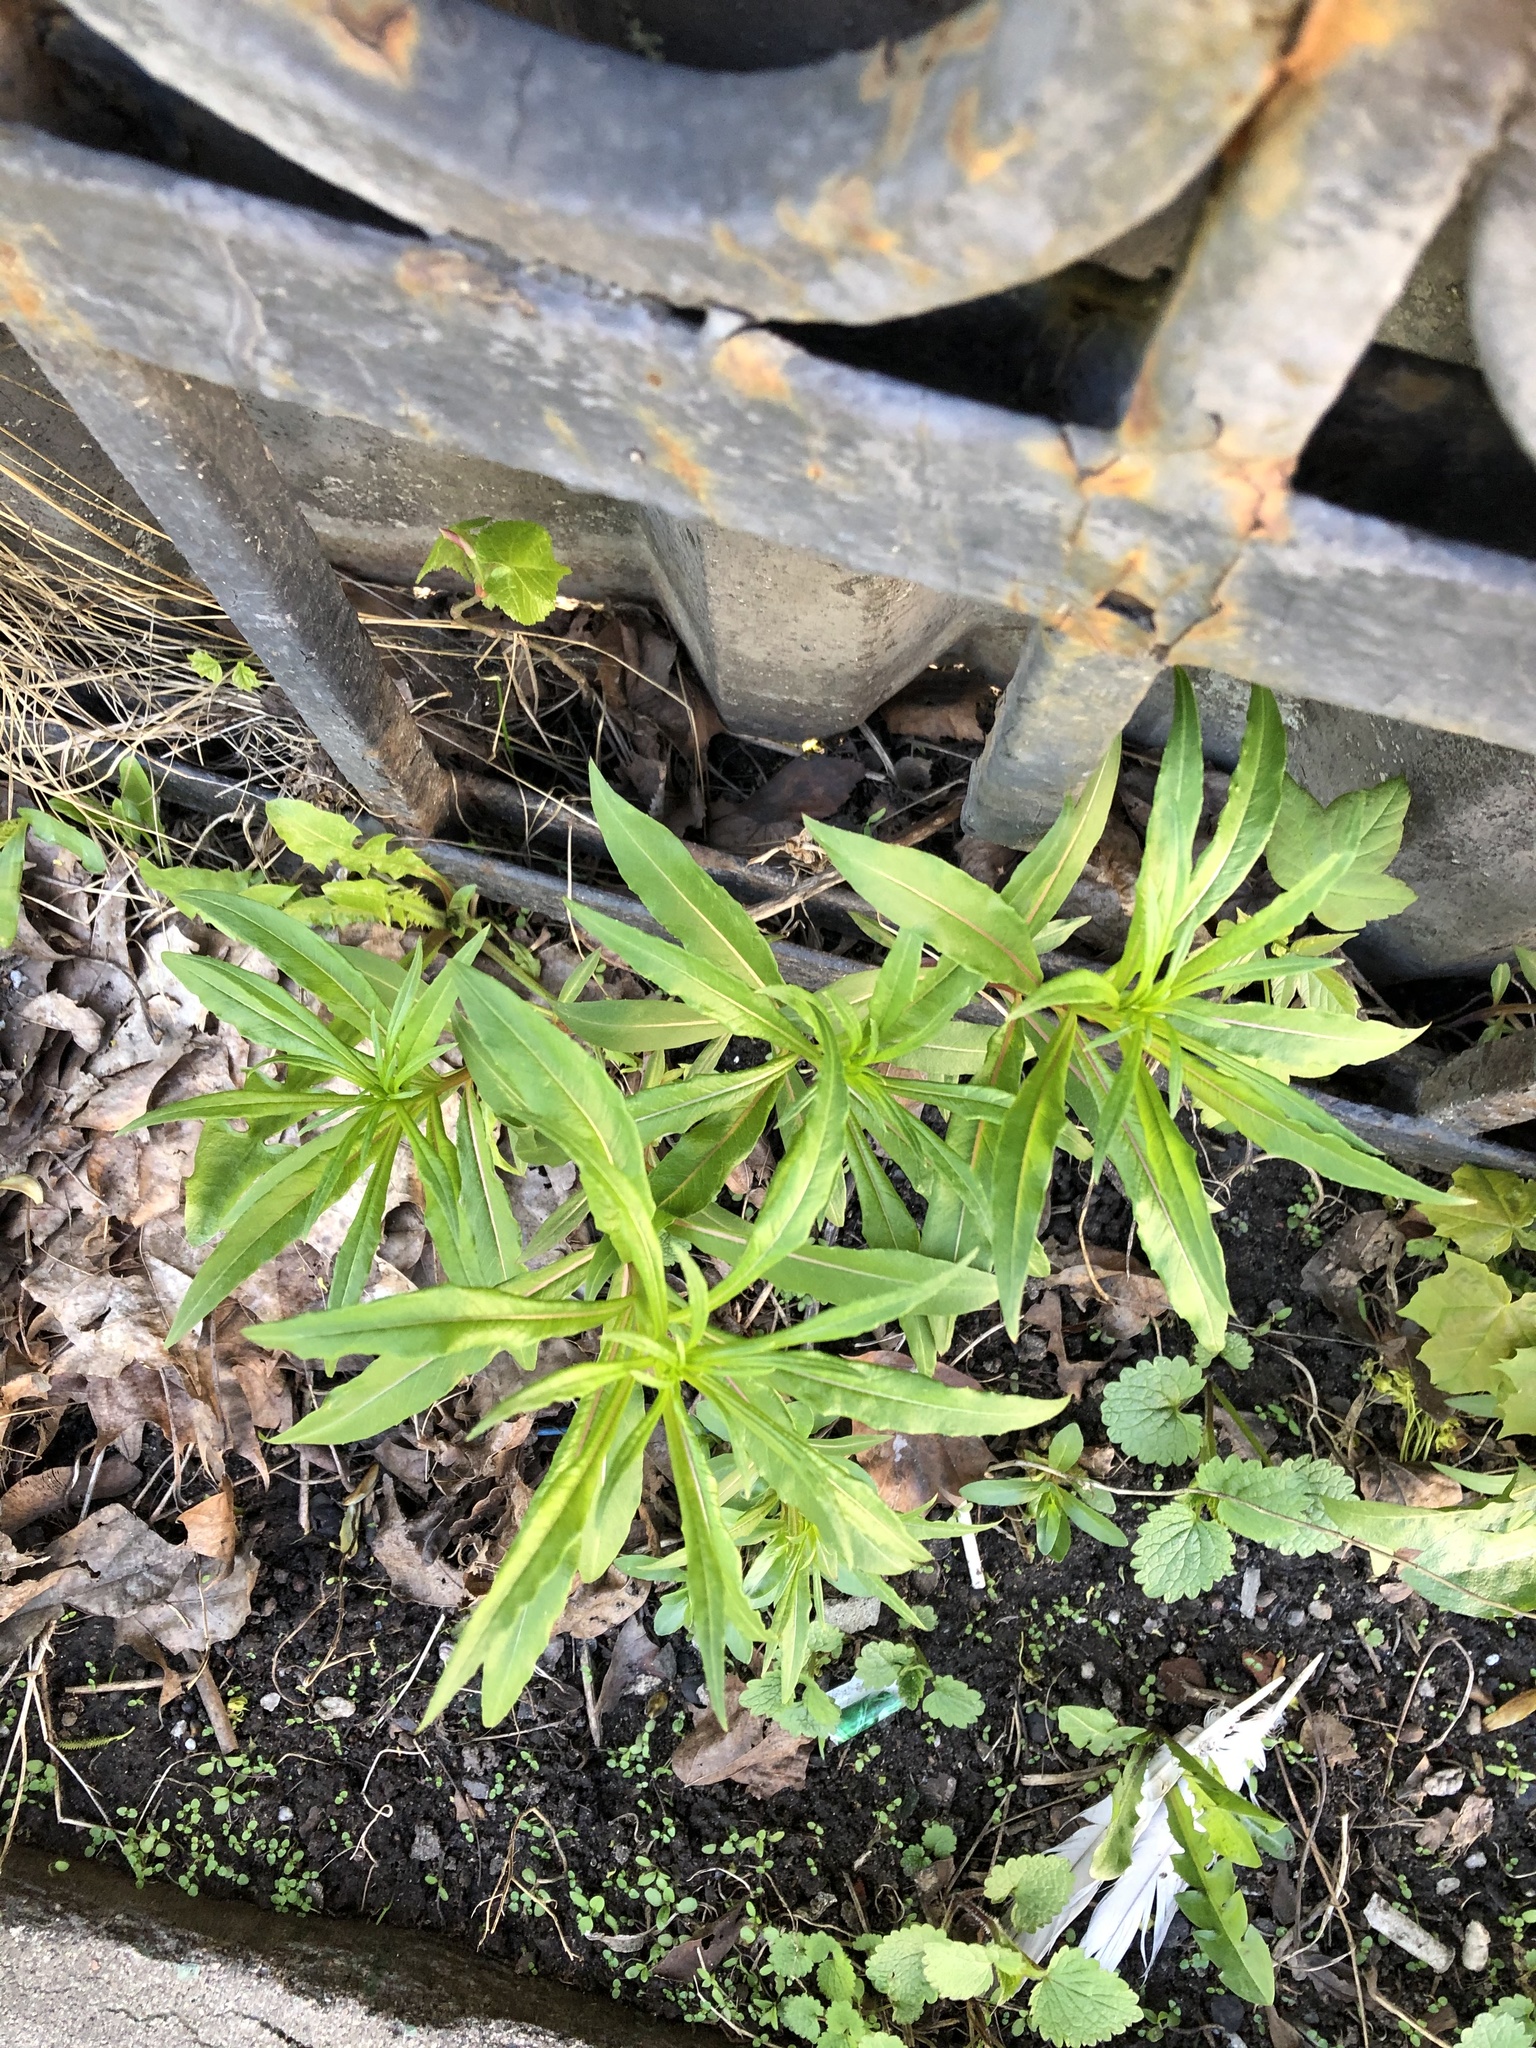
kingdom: Plantae
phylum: Tracheophyta
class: Magnoliopsida
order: Myrtales
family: Onagraceae
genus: Chamaenerion
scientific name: Chamaenerion angustifolium
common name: Fireweed
